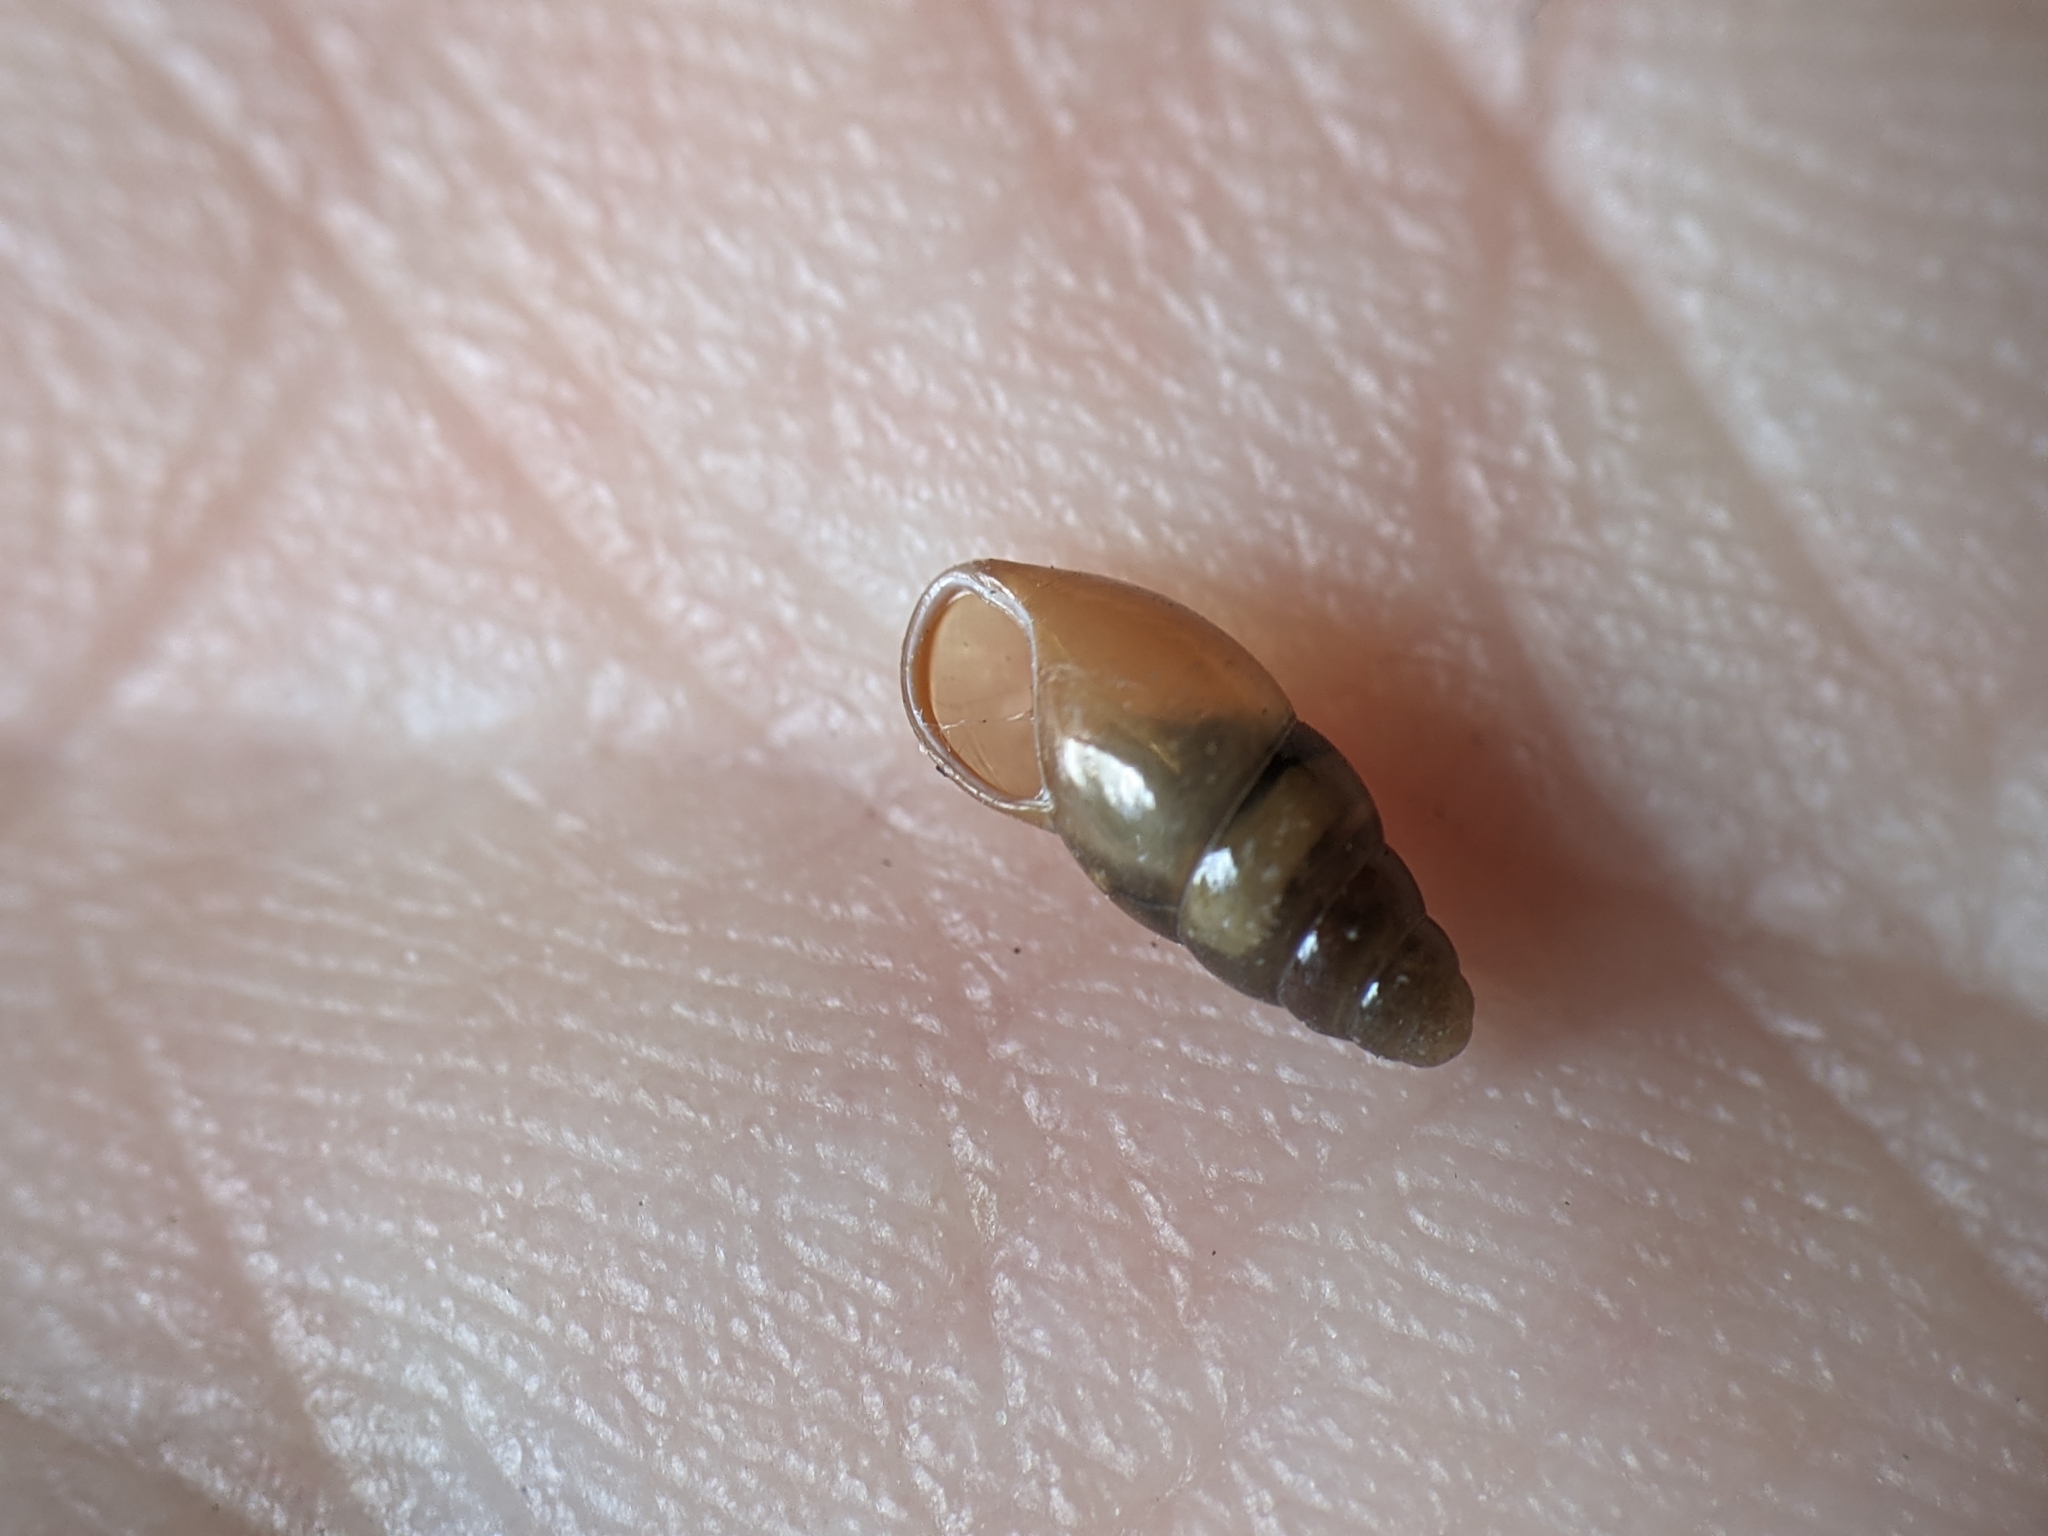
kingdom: Animalia
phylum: Mollusca
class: Gastropoda
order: Stylommatophora
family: Cochlicopidae
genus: Cochlicopa
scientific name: Cochlicopa lubrica
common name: Glossy pillar snail
